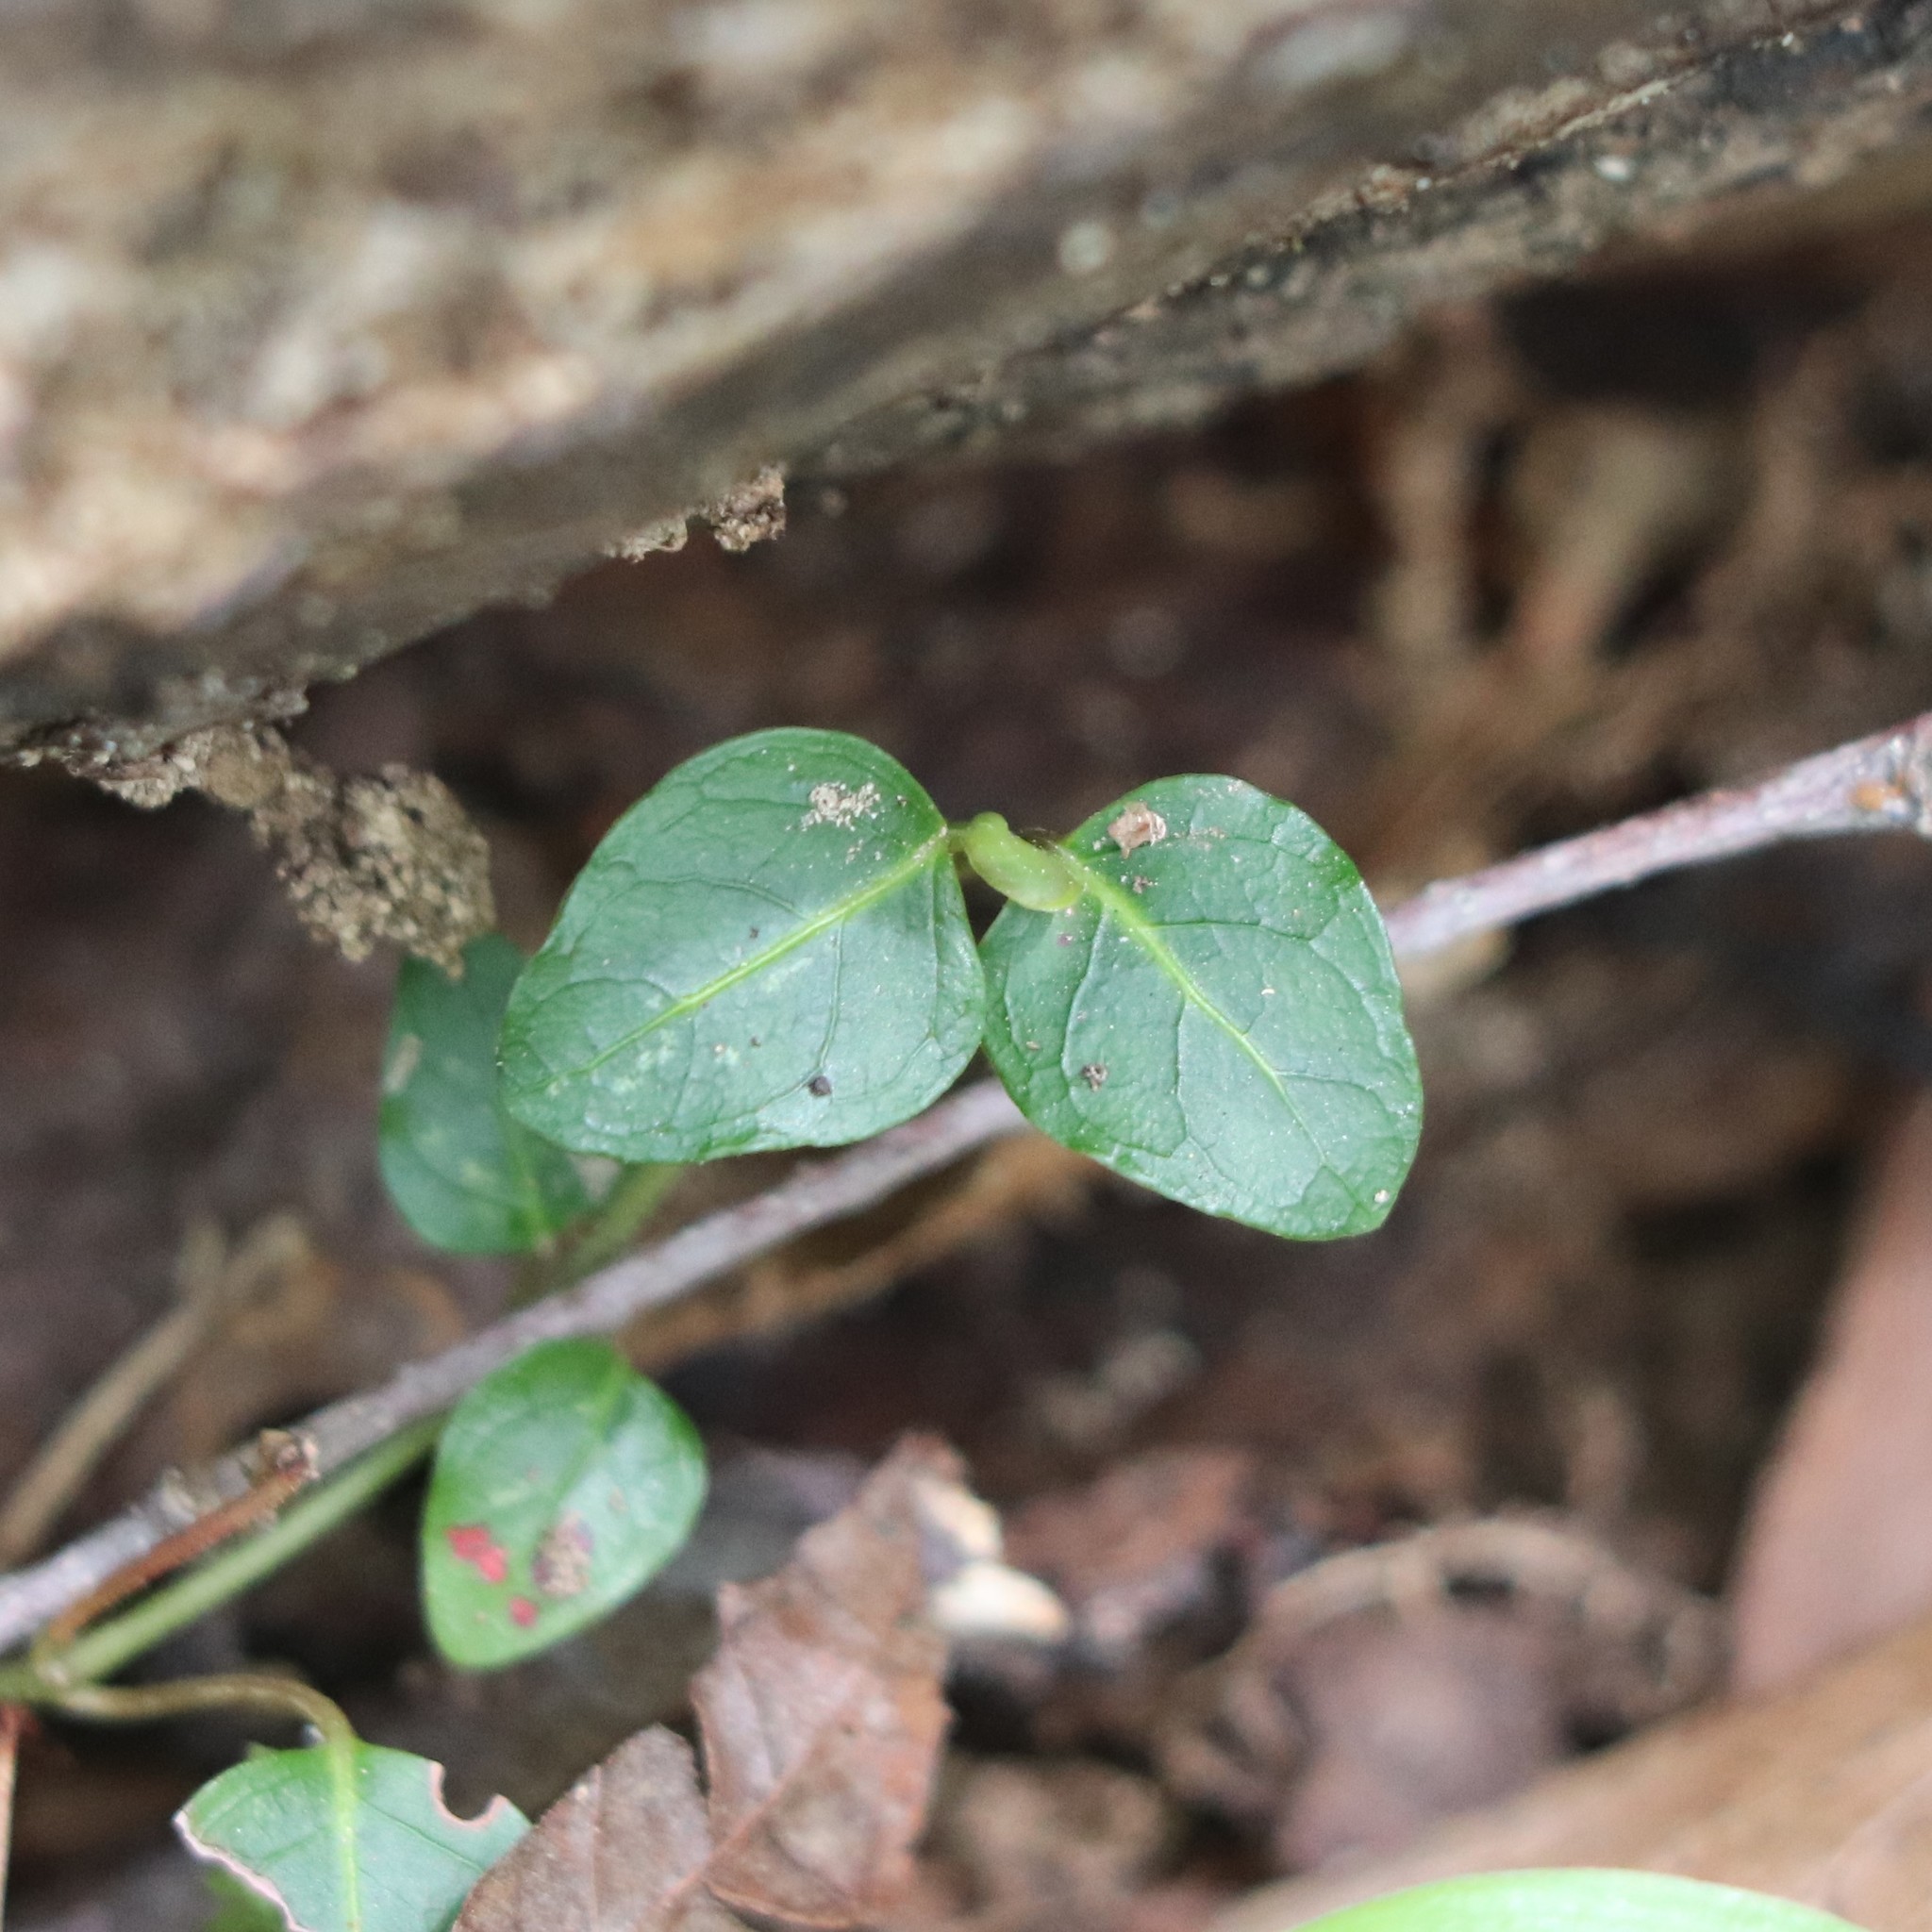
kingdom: Plantae
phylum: Tracheophyta
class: Magnoliopsida
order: Gentianales
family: Rubiaceae
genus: Mitchella
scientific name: Mitchella repens
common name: Partridge-berry
